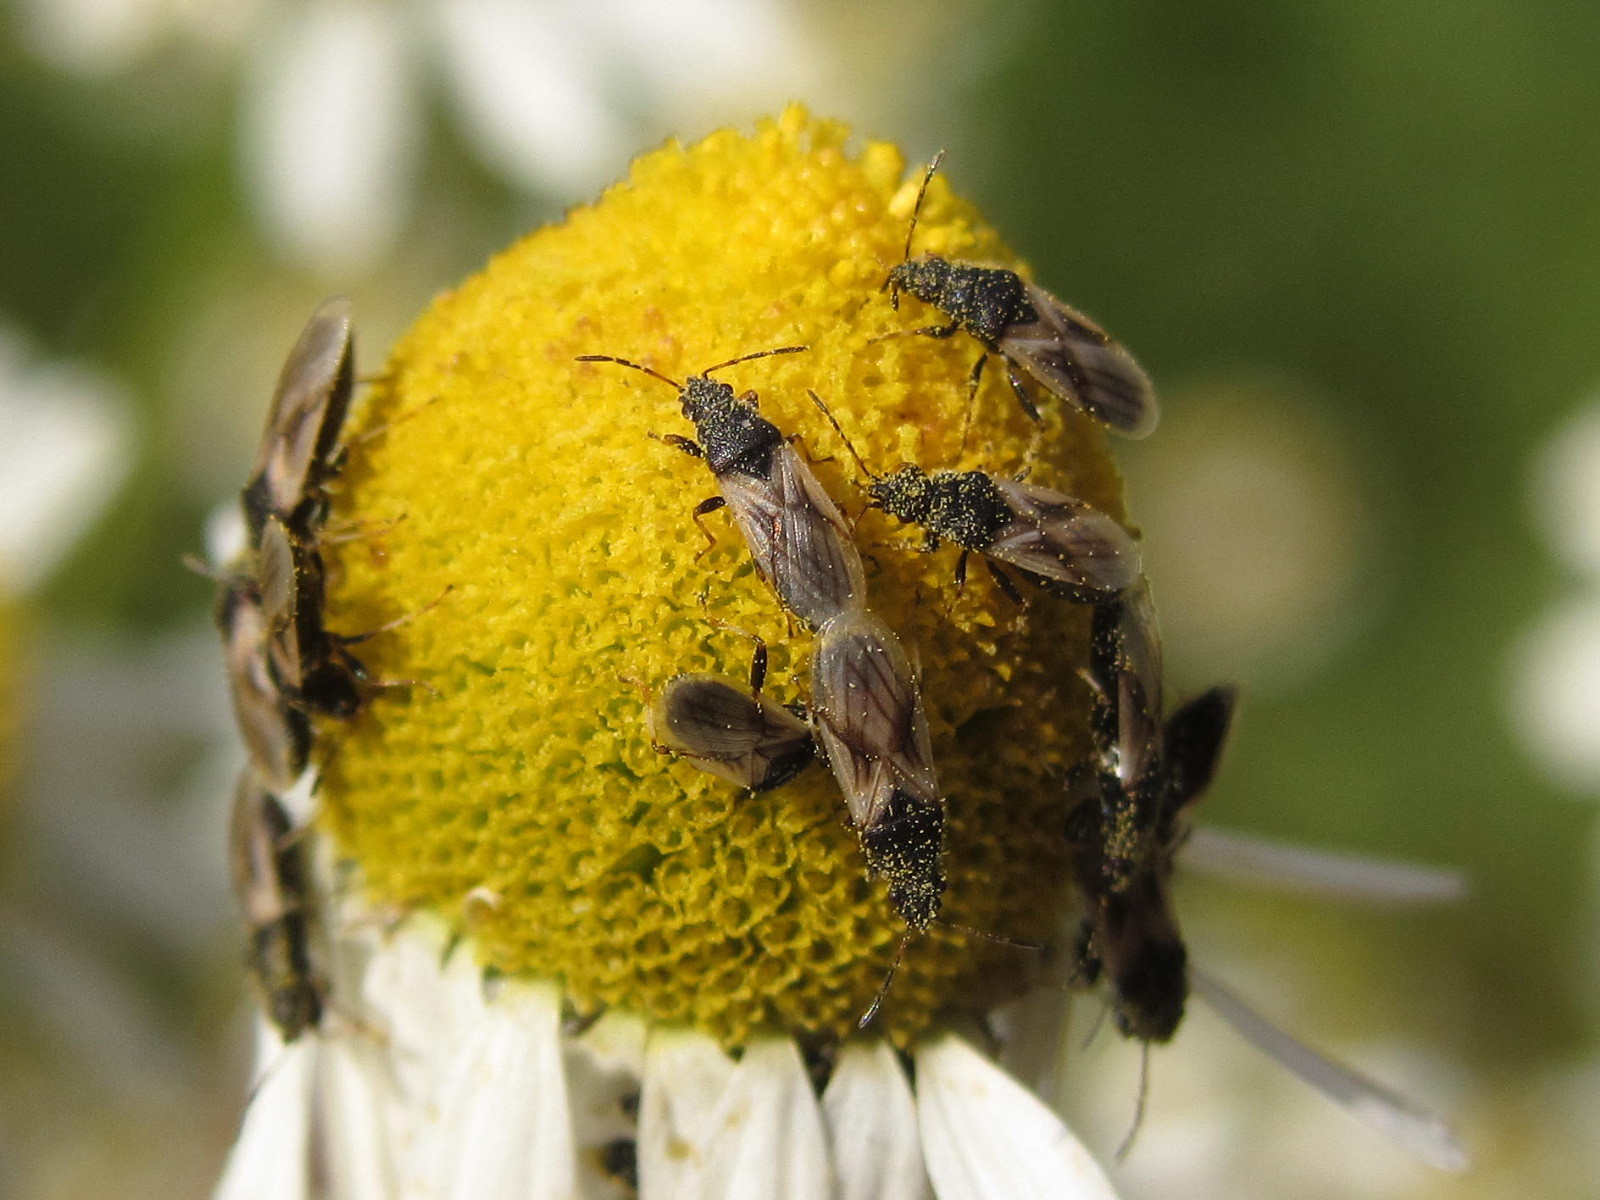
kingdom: Animalia
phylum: Arthropoda
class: Insecta
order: Hemiptera
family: Oxycarenidae
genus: Metopoplax
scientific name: Metopoplax origani
